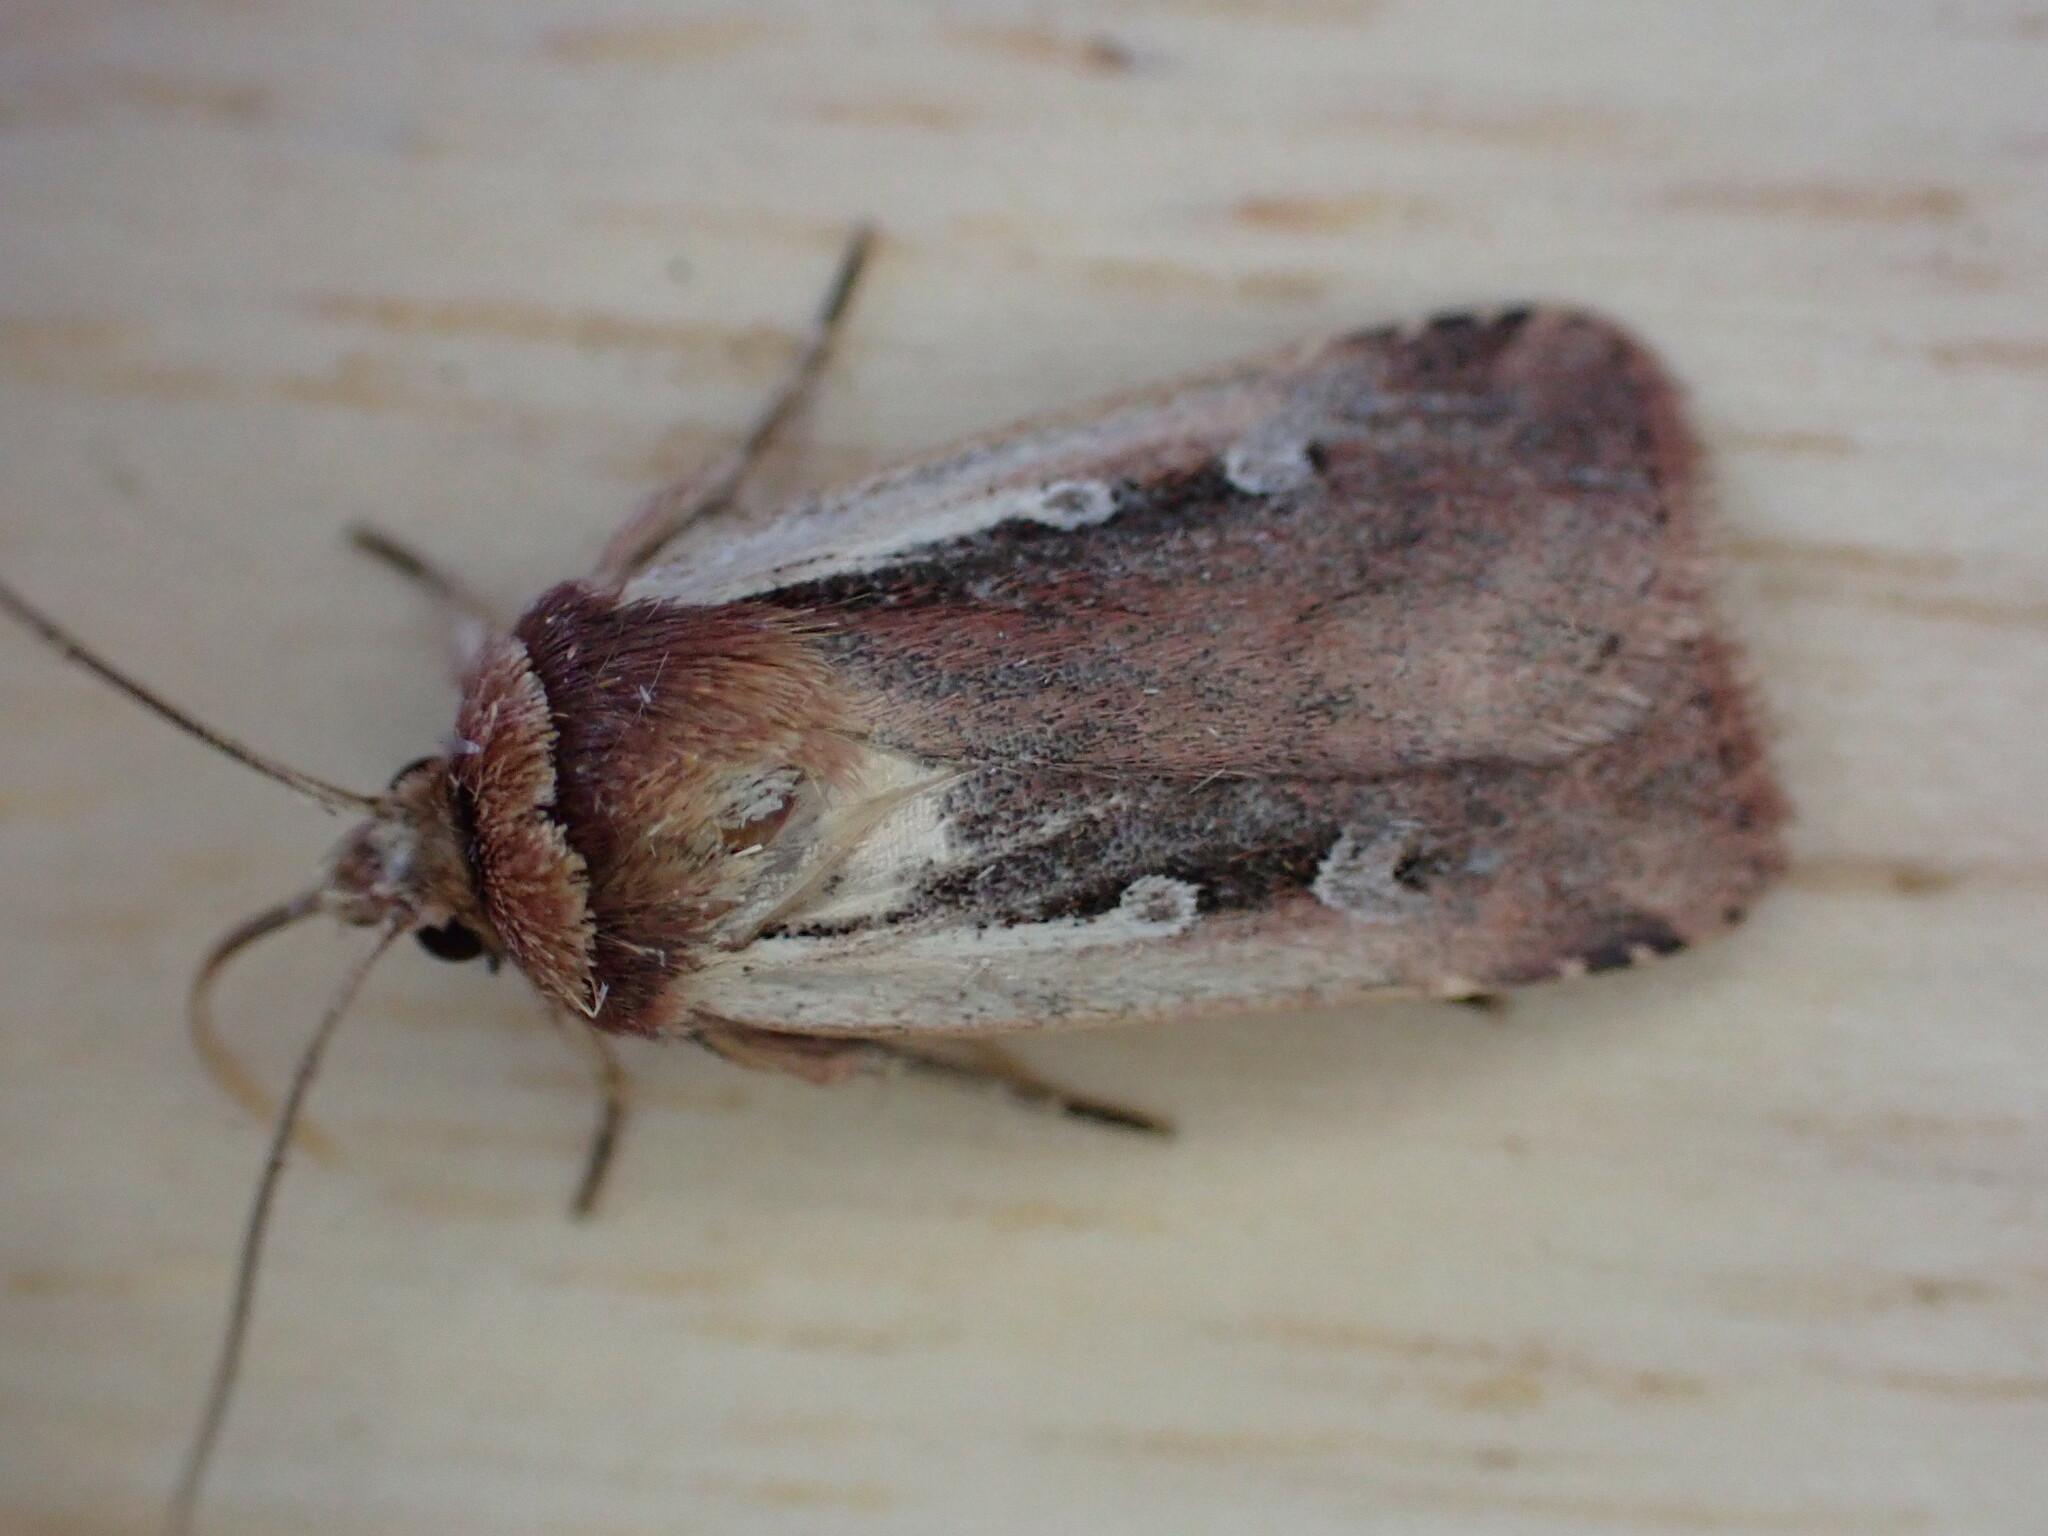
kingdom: Animalia
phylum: Arthropoda
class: Insecta
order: Lepidoptera
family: Noctuidae
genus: Ochropleura
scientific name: Ochropleura plecta
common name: Flame shoulder
